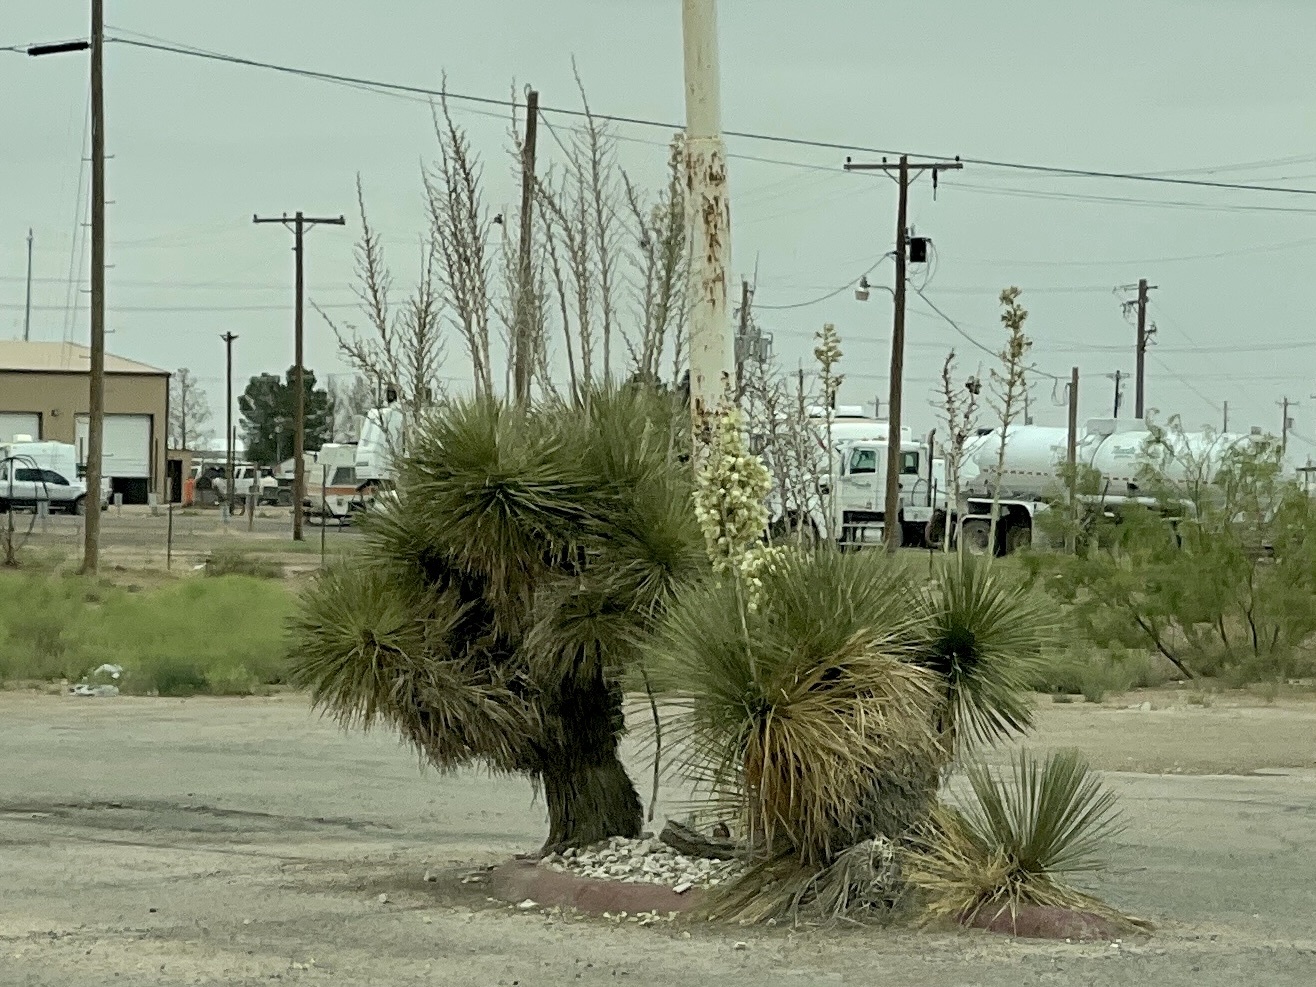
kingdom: Plantae
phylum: Tracheophyta
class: Liliopsida
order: Asparagales
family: Asparagaceae
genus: Yucca
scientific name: Yucca elata
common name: Palmella
